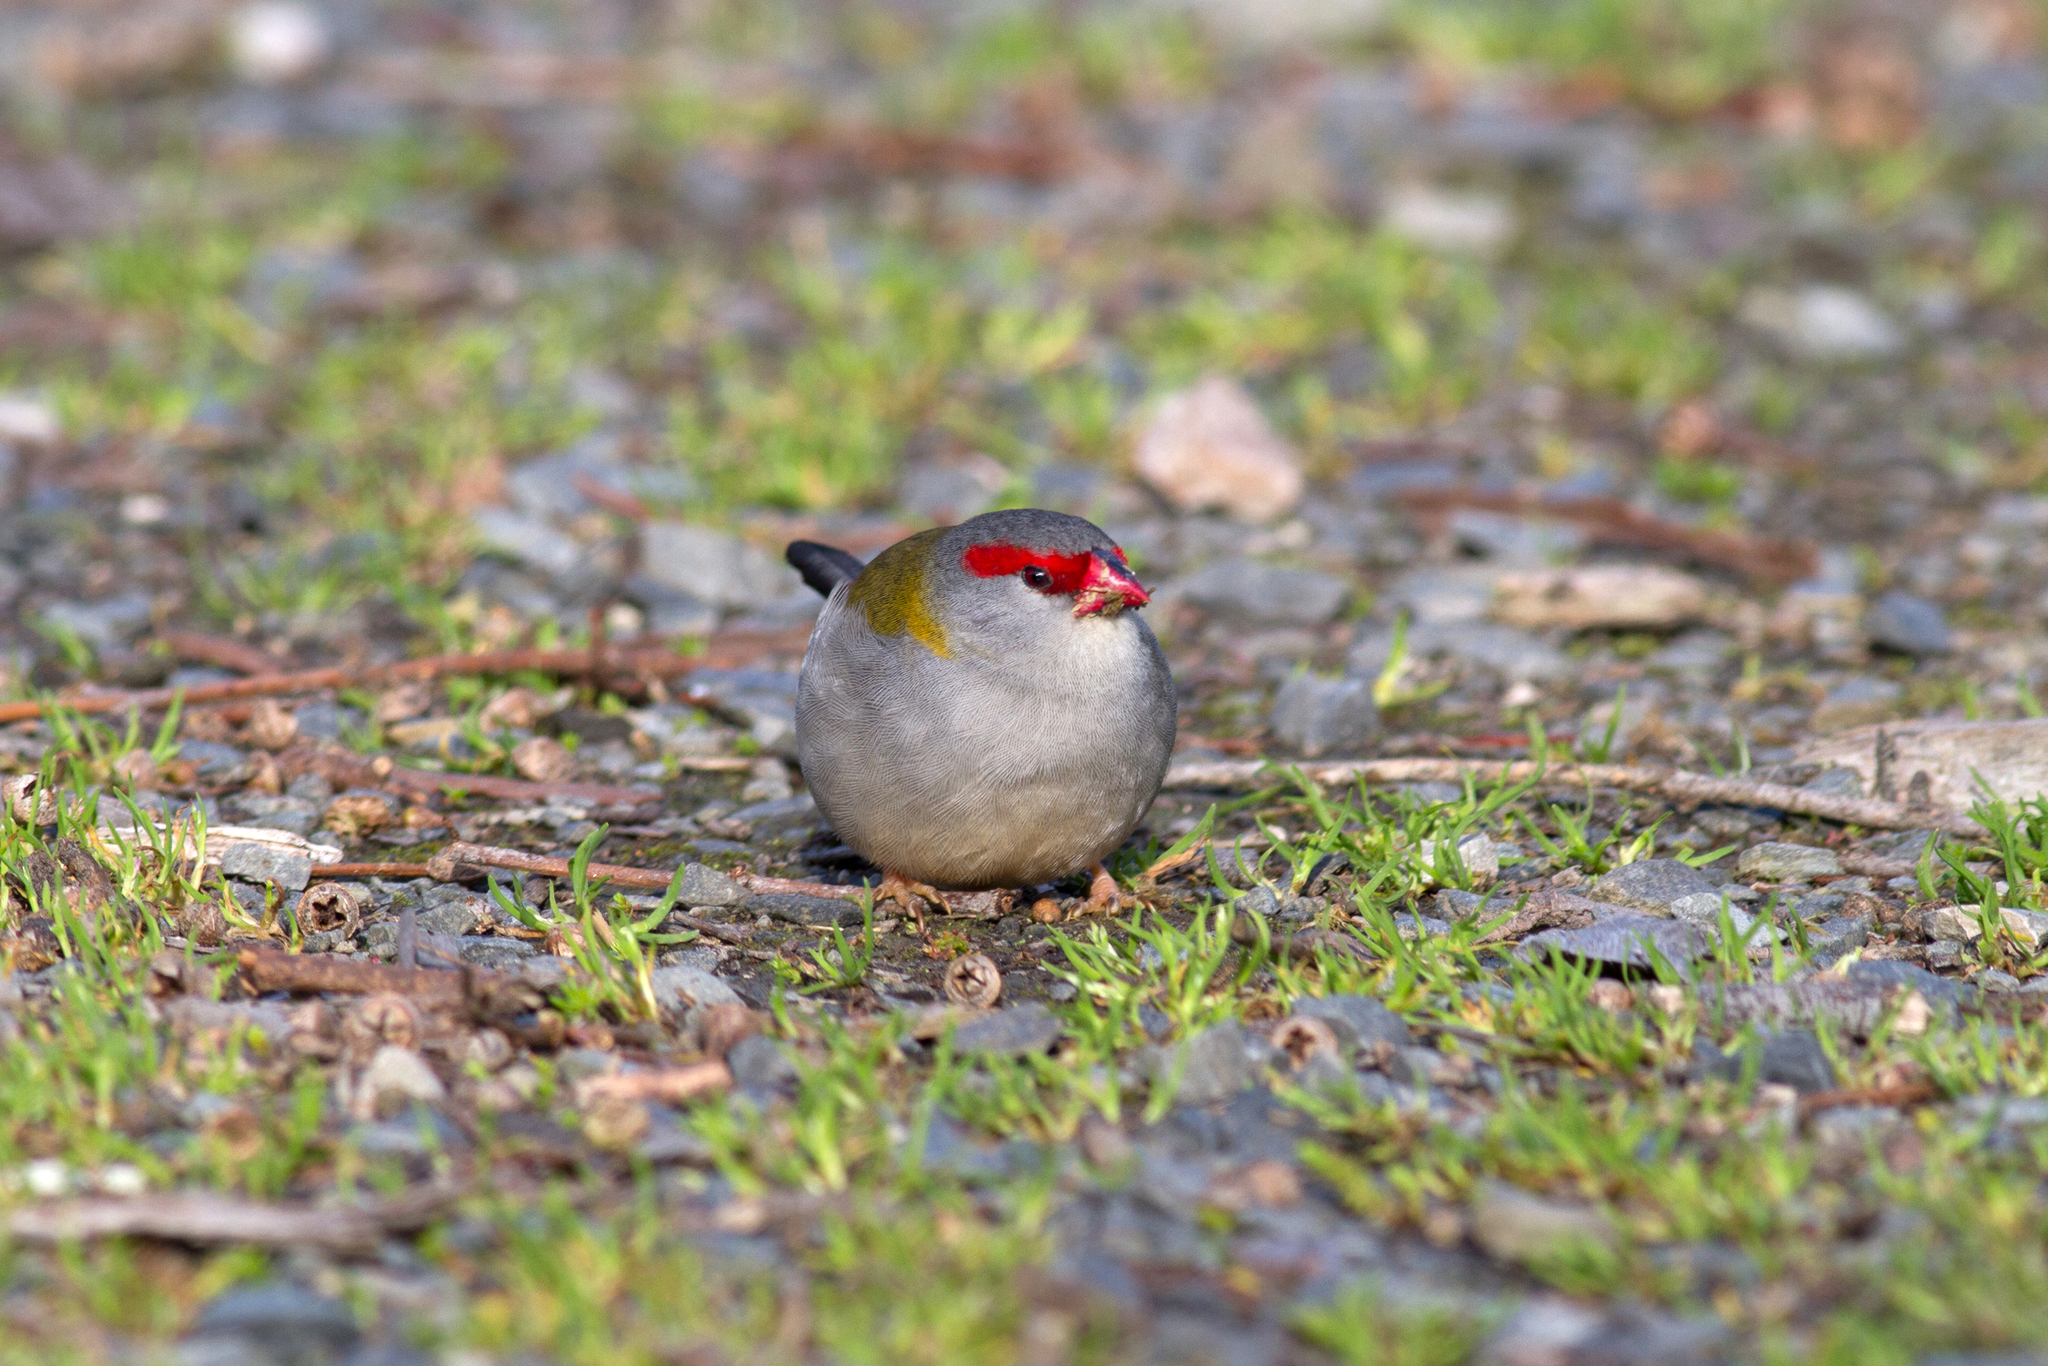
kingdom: Animalia
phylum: Chordata
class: Aves
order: Passeriformes
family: Estrildidae
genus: Neochmia
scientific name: Neochmia temporalis
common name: Red-browed finch
